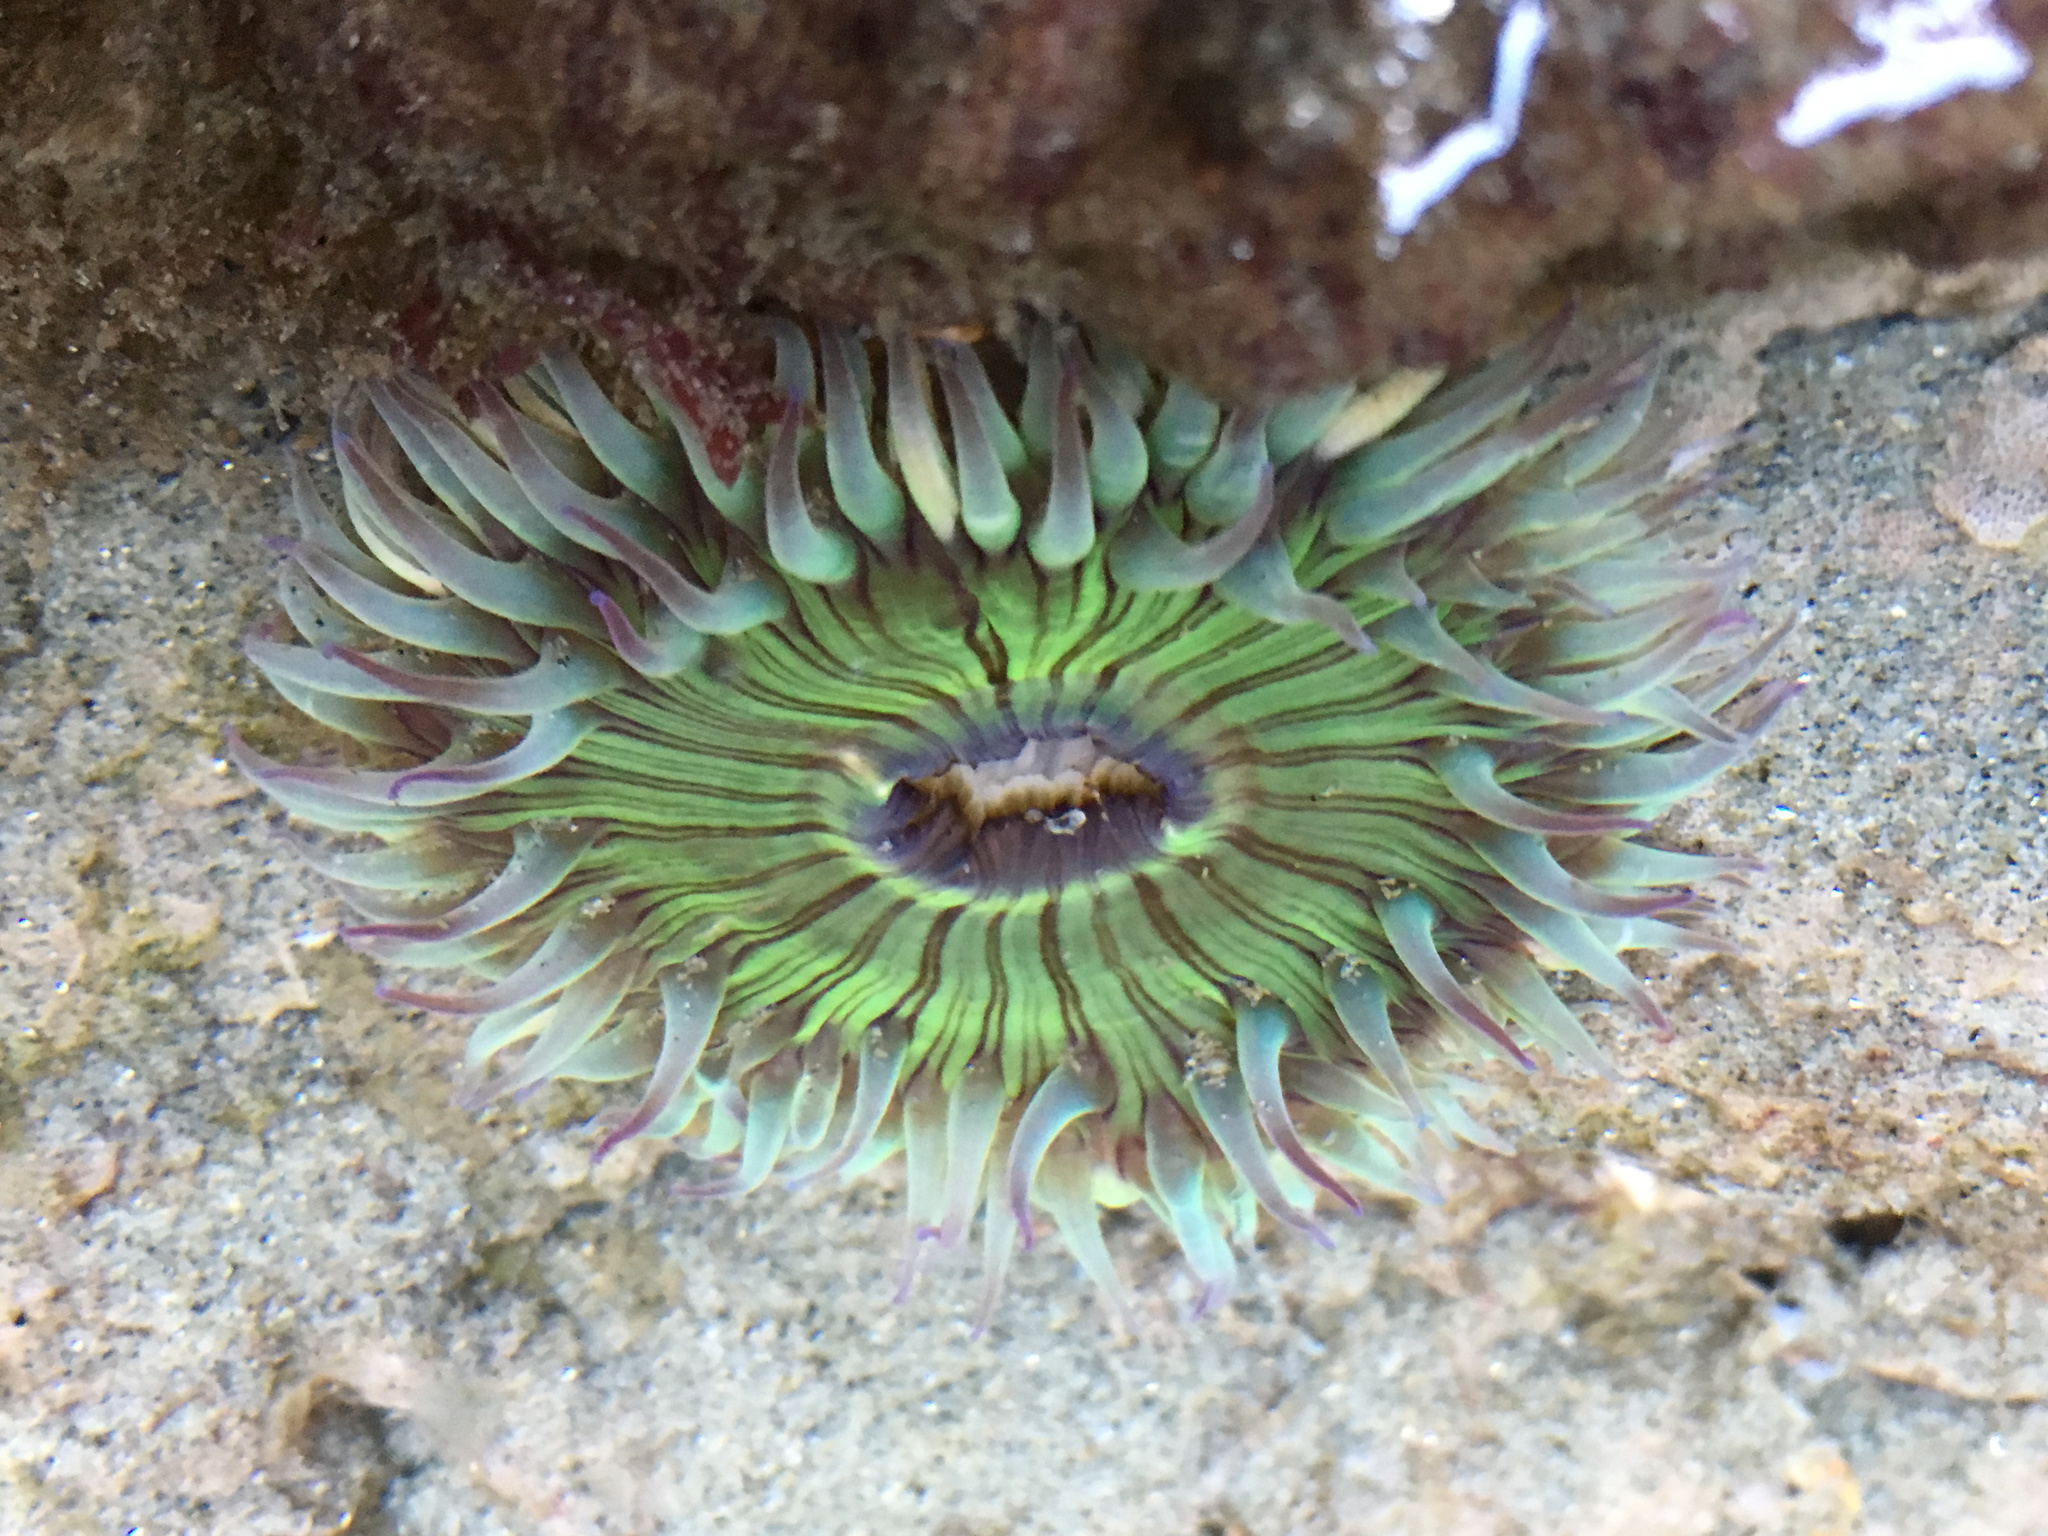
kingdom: Animalia
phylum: Cnidaria
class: Anthozoa
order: Actiniaria
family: Actiniidae
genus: Anthopleura
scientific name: Anthopleura sola
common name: Sun anemone
